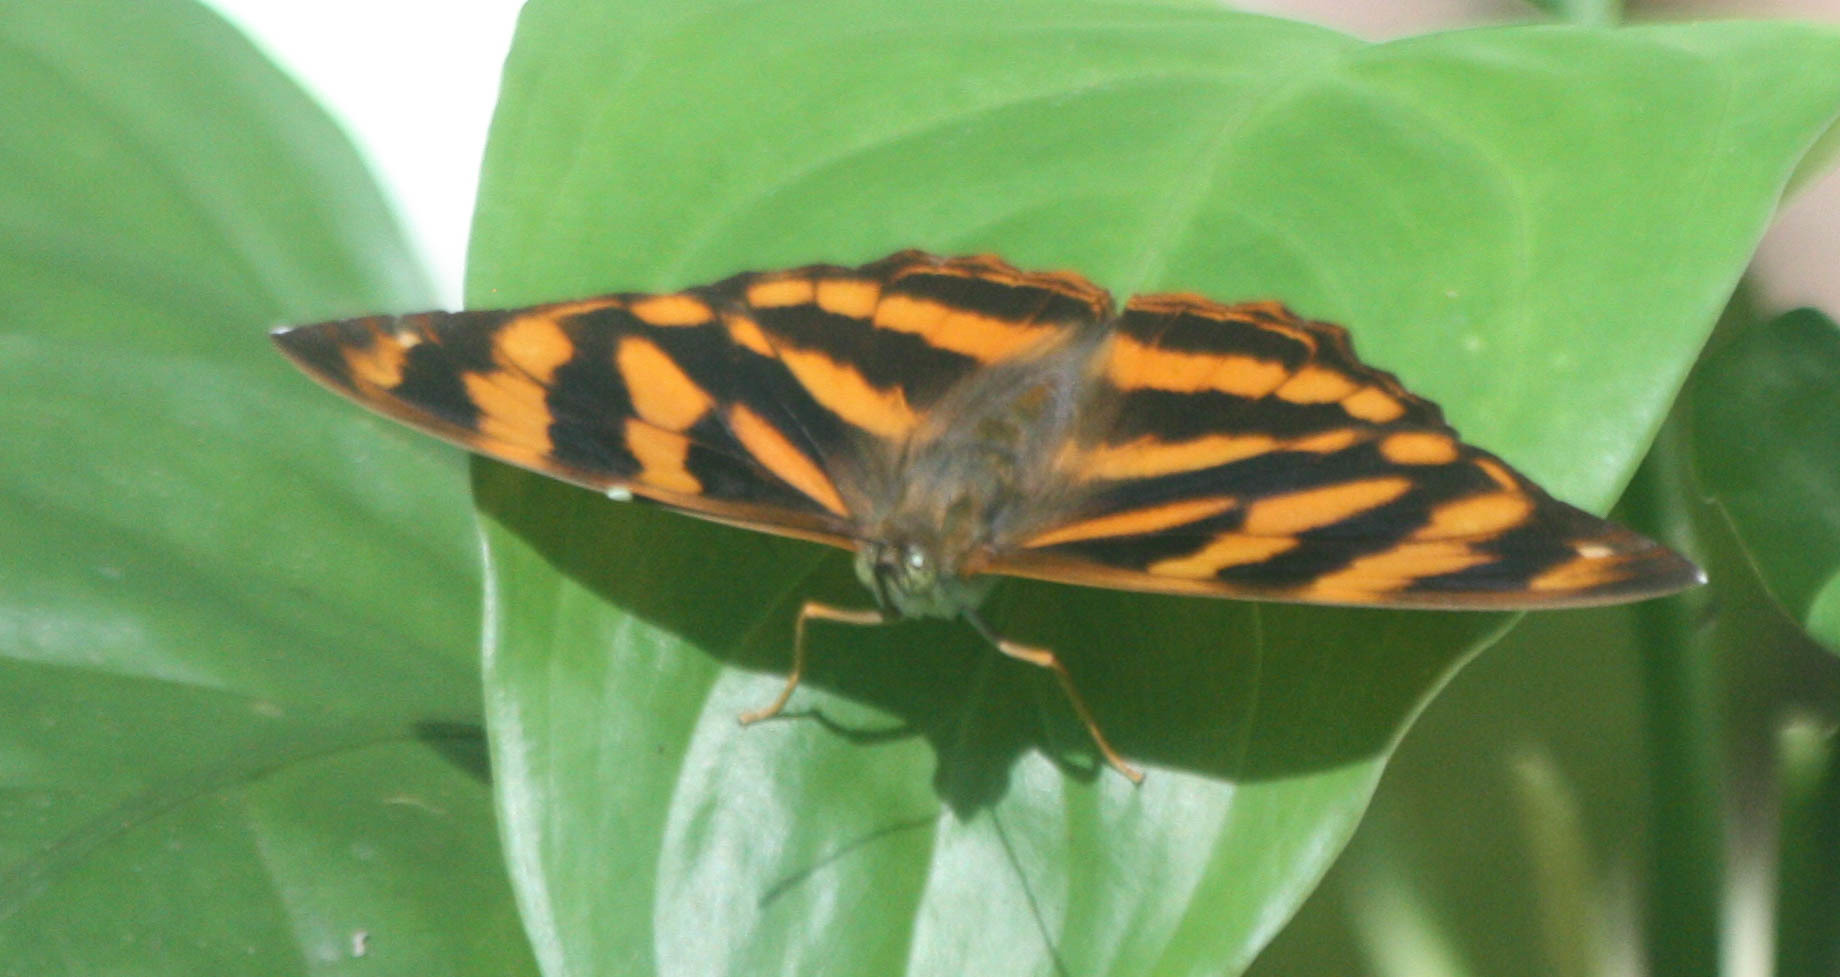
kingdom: Animalia
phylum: Arthropoda
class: Insecta
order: Lepidoptera
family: Nymphalidae
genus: Herona
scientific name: Herona marathus
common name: Yellow pasha
